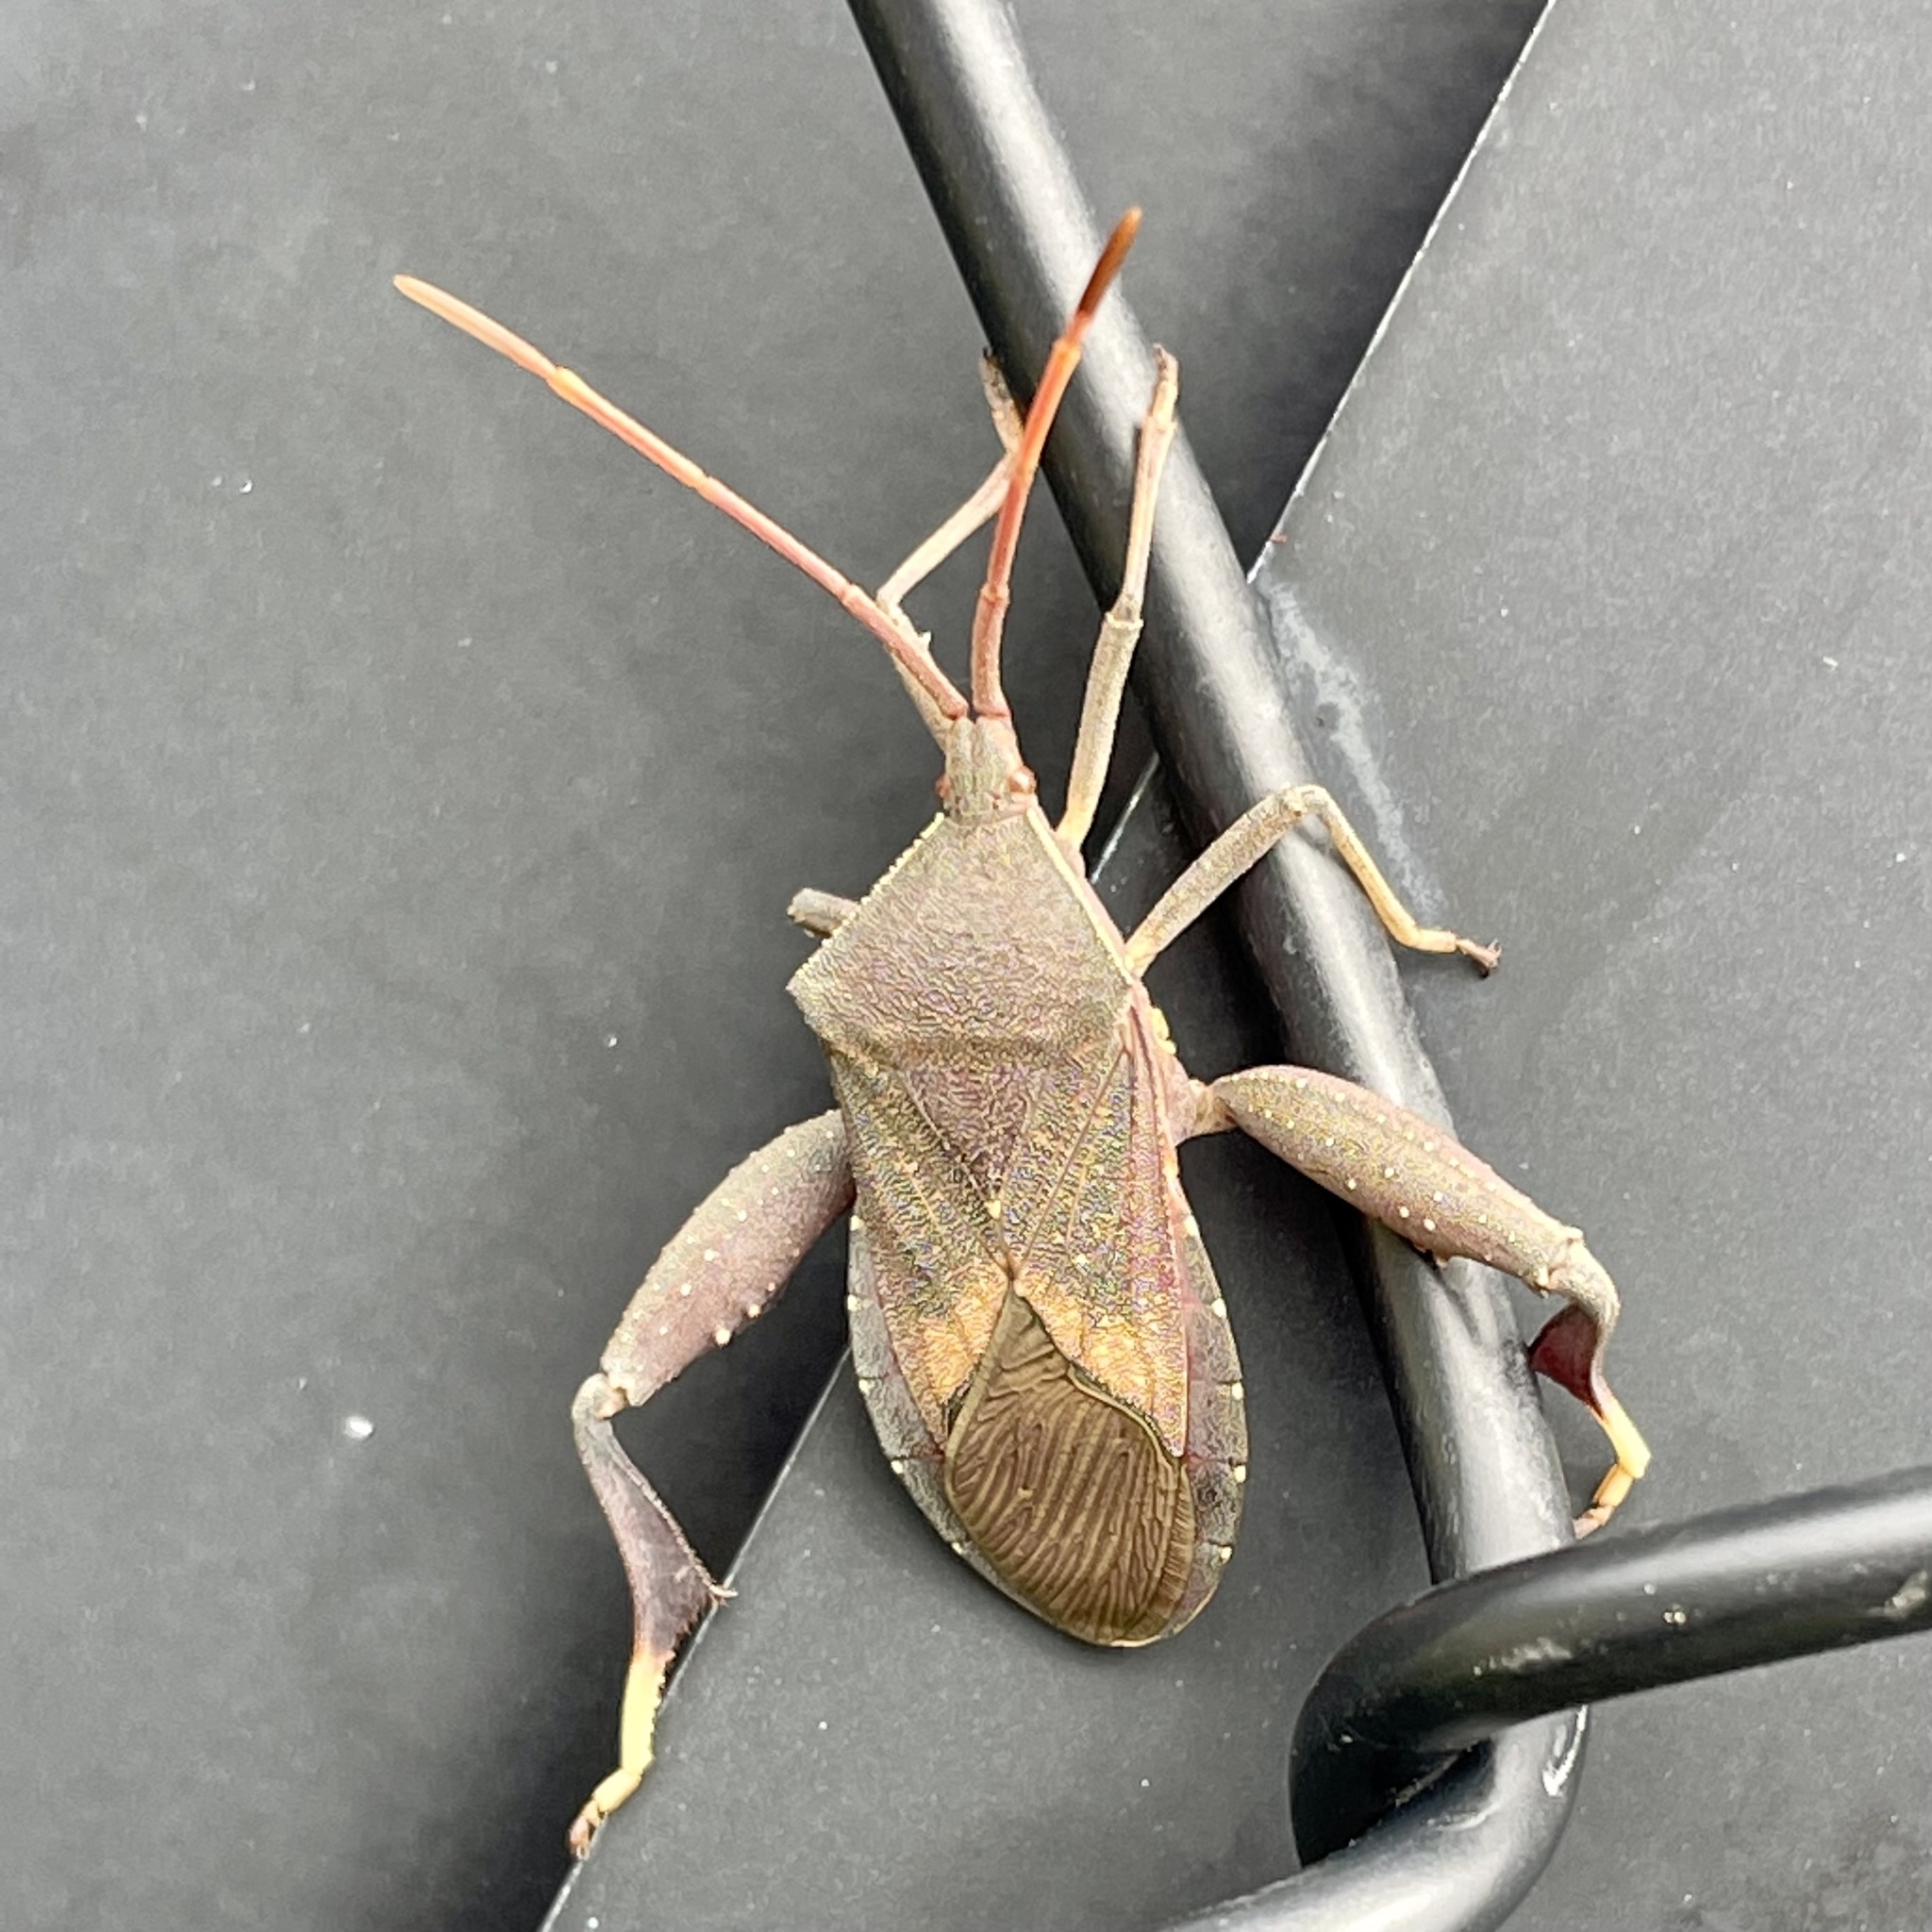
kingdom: Animalia
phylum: Arthropoda
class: Insecta
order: Hemiptera
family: Coreidae
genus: Amorbus
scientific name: Amorbus robustus
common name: Common gum-tree bug
